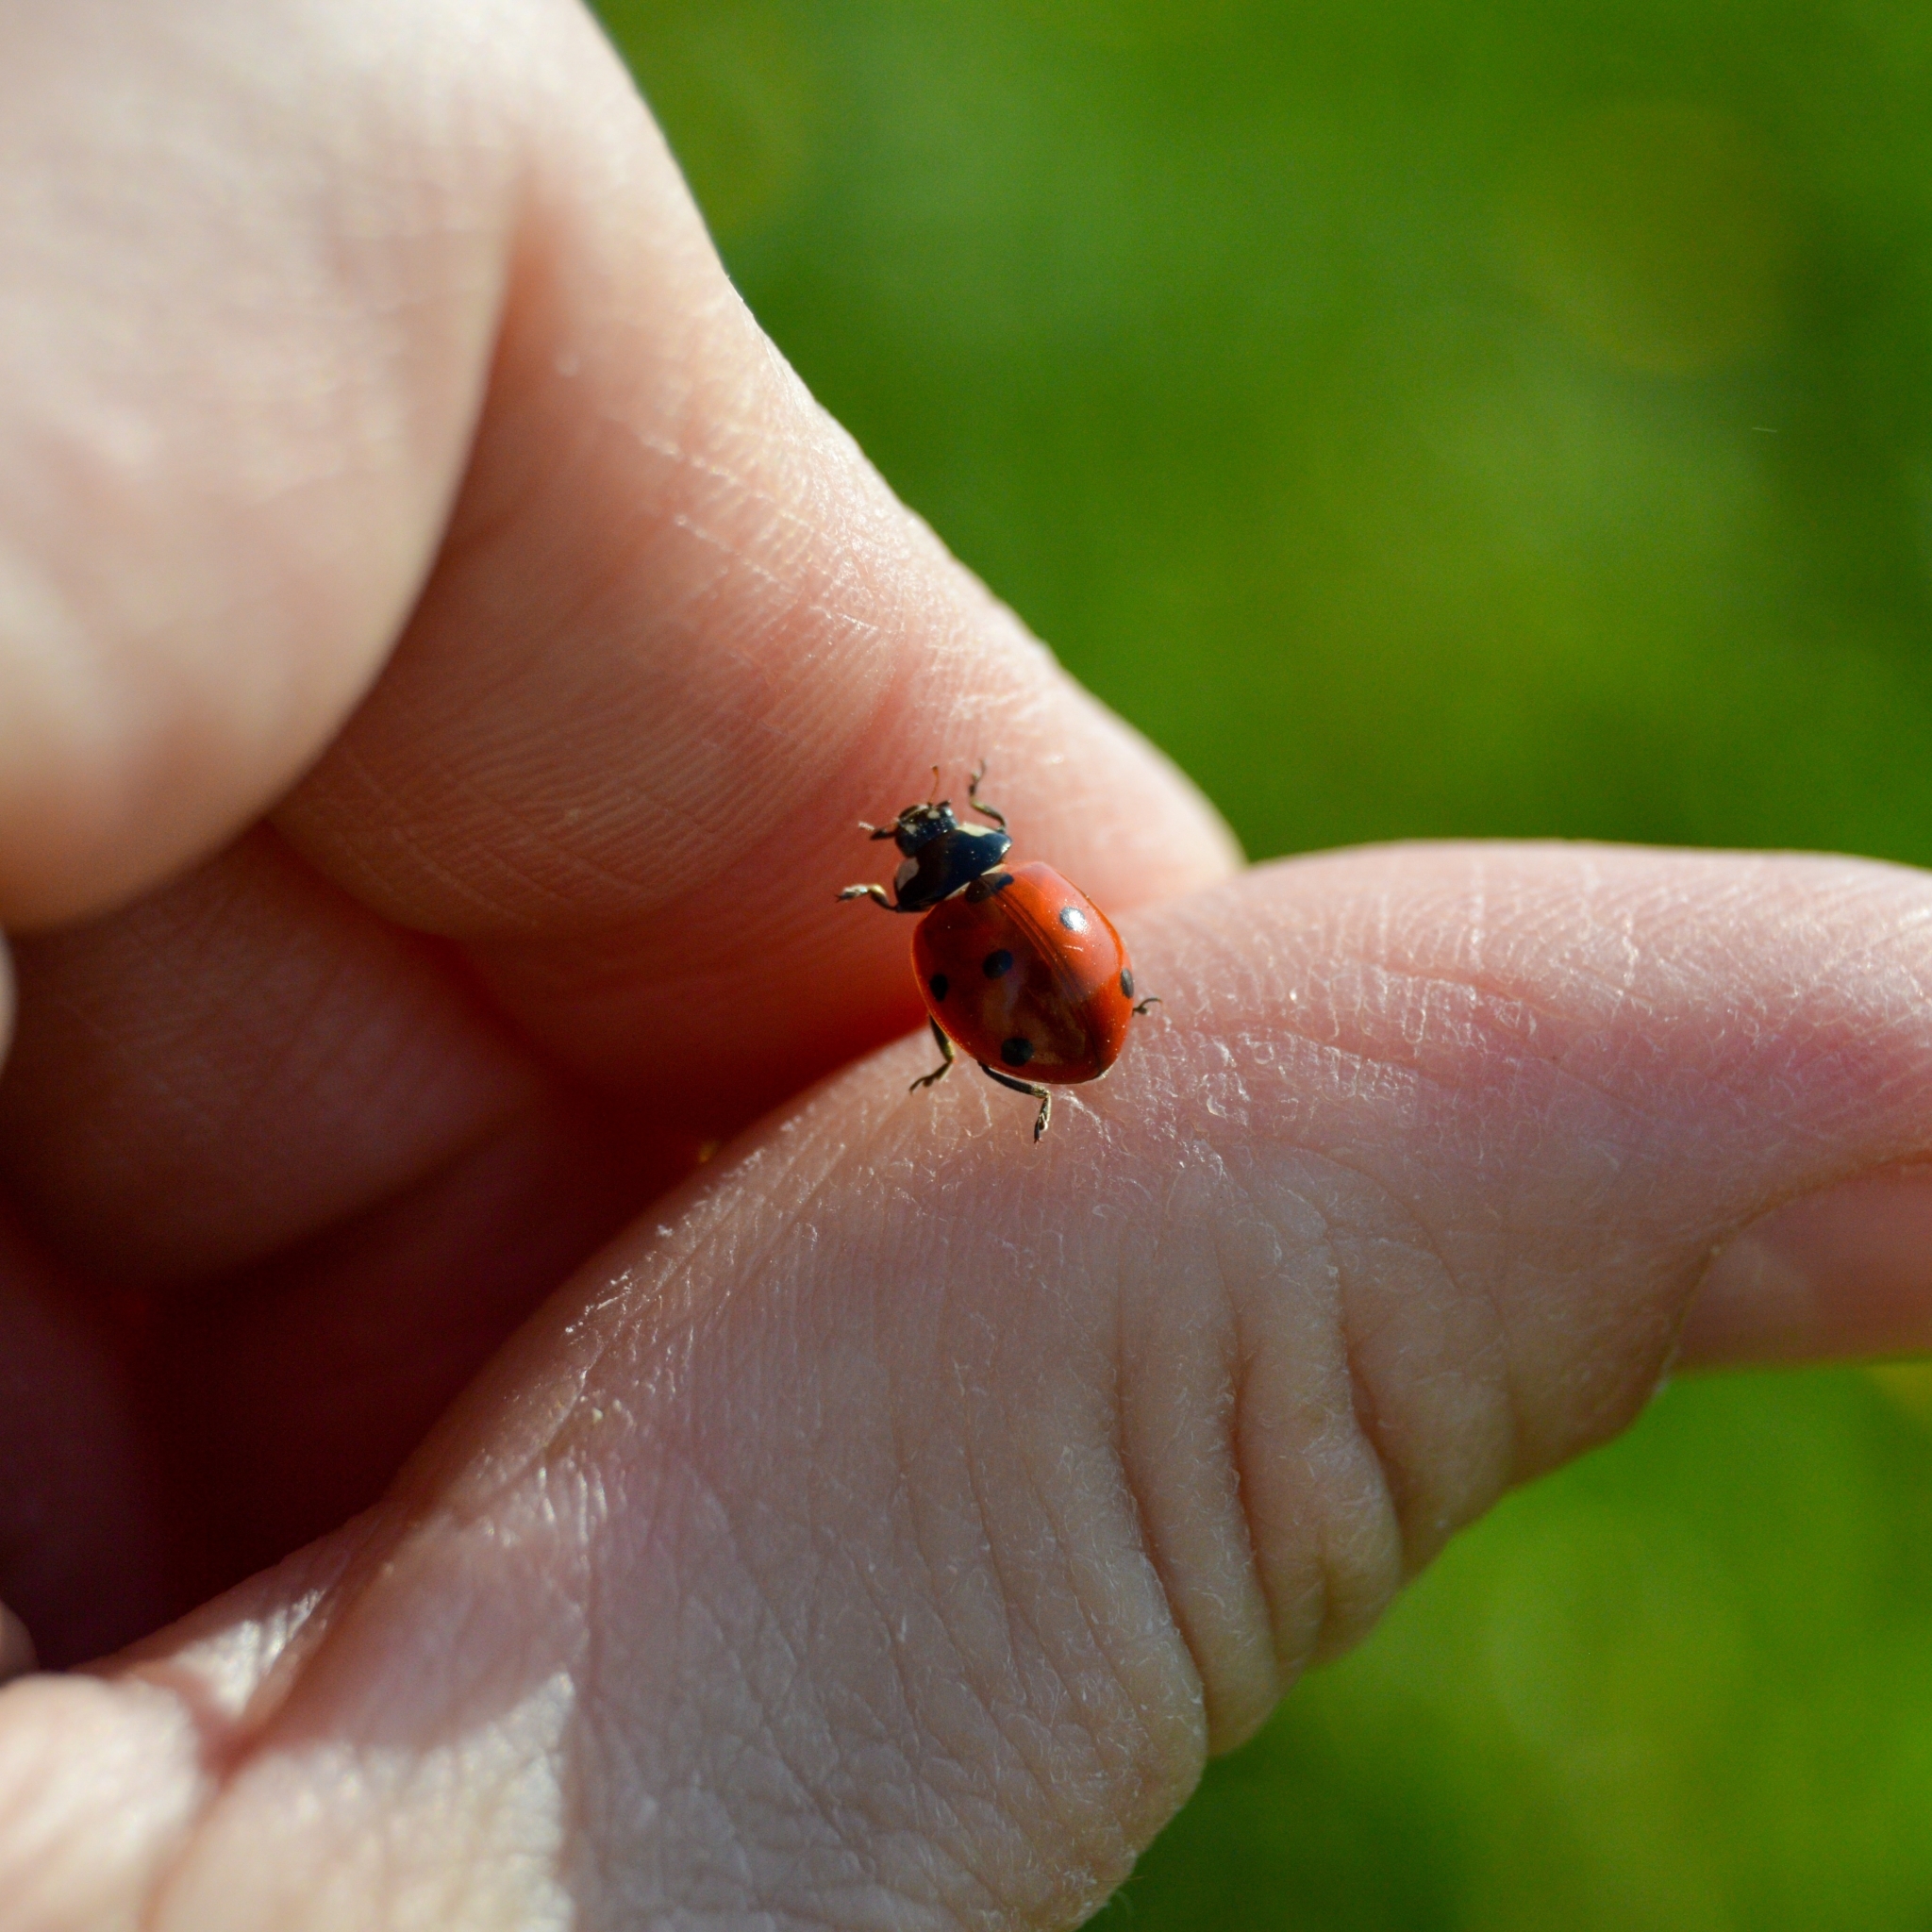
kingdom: Animalia
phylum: Arthropoda
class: Insecta
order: Coleoptera
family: Coccinellidae
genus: Coccinella
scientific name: Coccinella septempunctata
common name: Sevenspotted lady beetle
